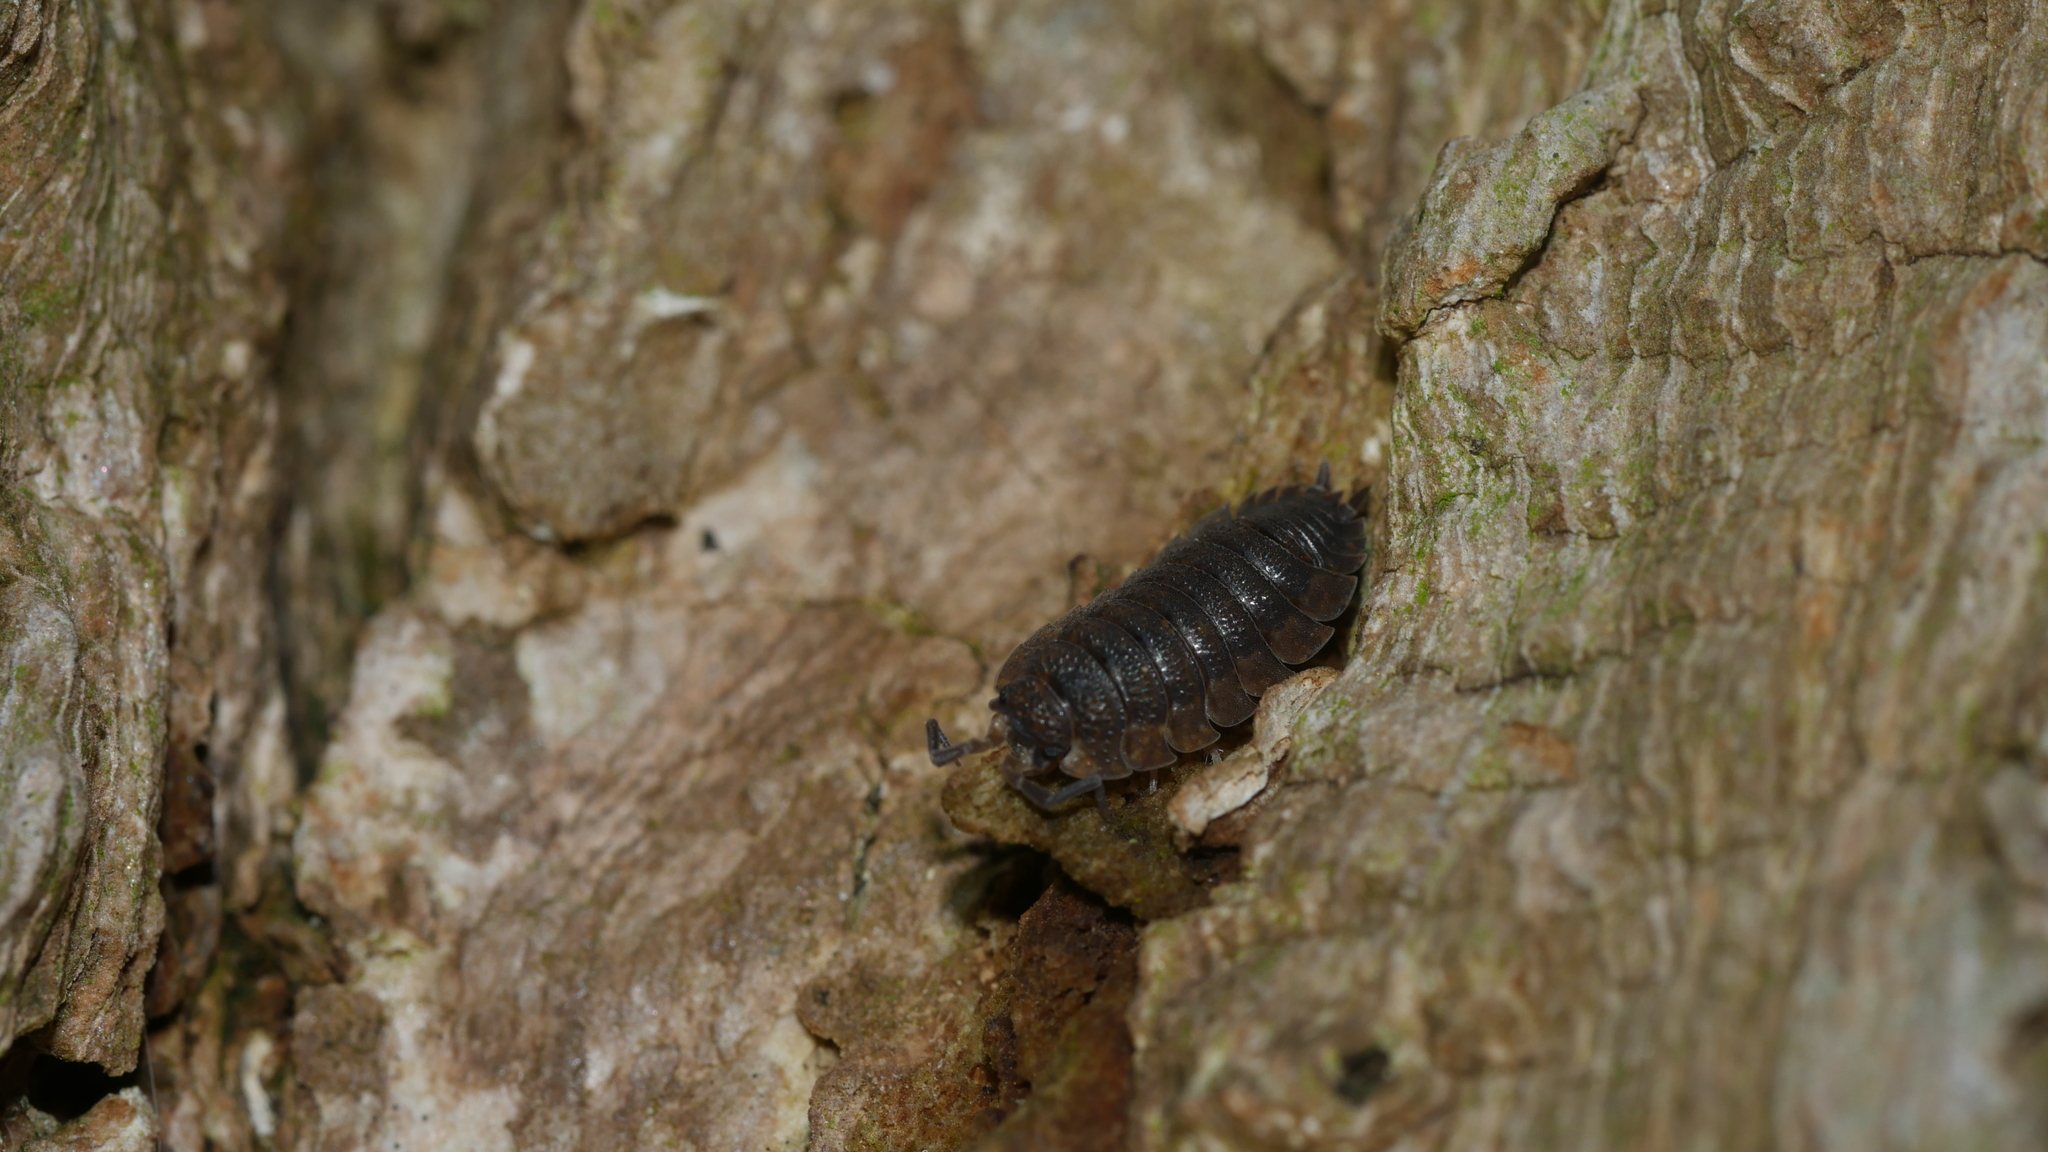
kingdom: Animalia
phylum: Arthropoda
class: Malacostraca
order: Isopoda
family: Porcellionidae
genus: Porcellio
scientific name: Porcellio scaber
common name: Common rough woodlouse
